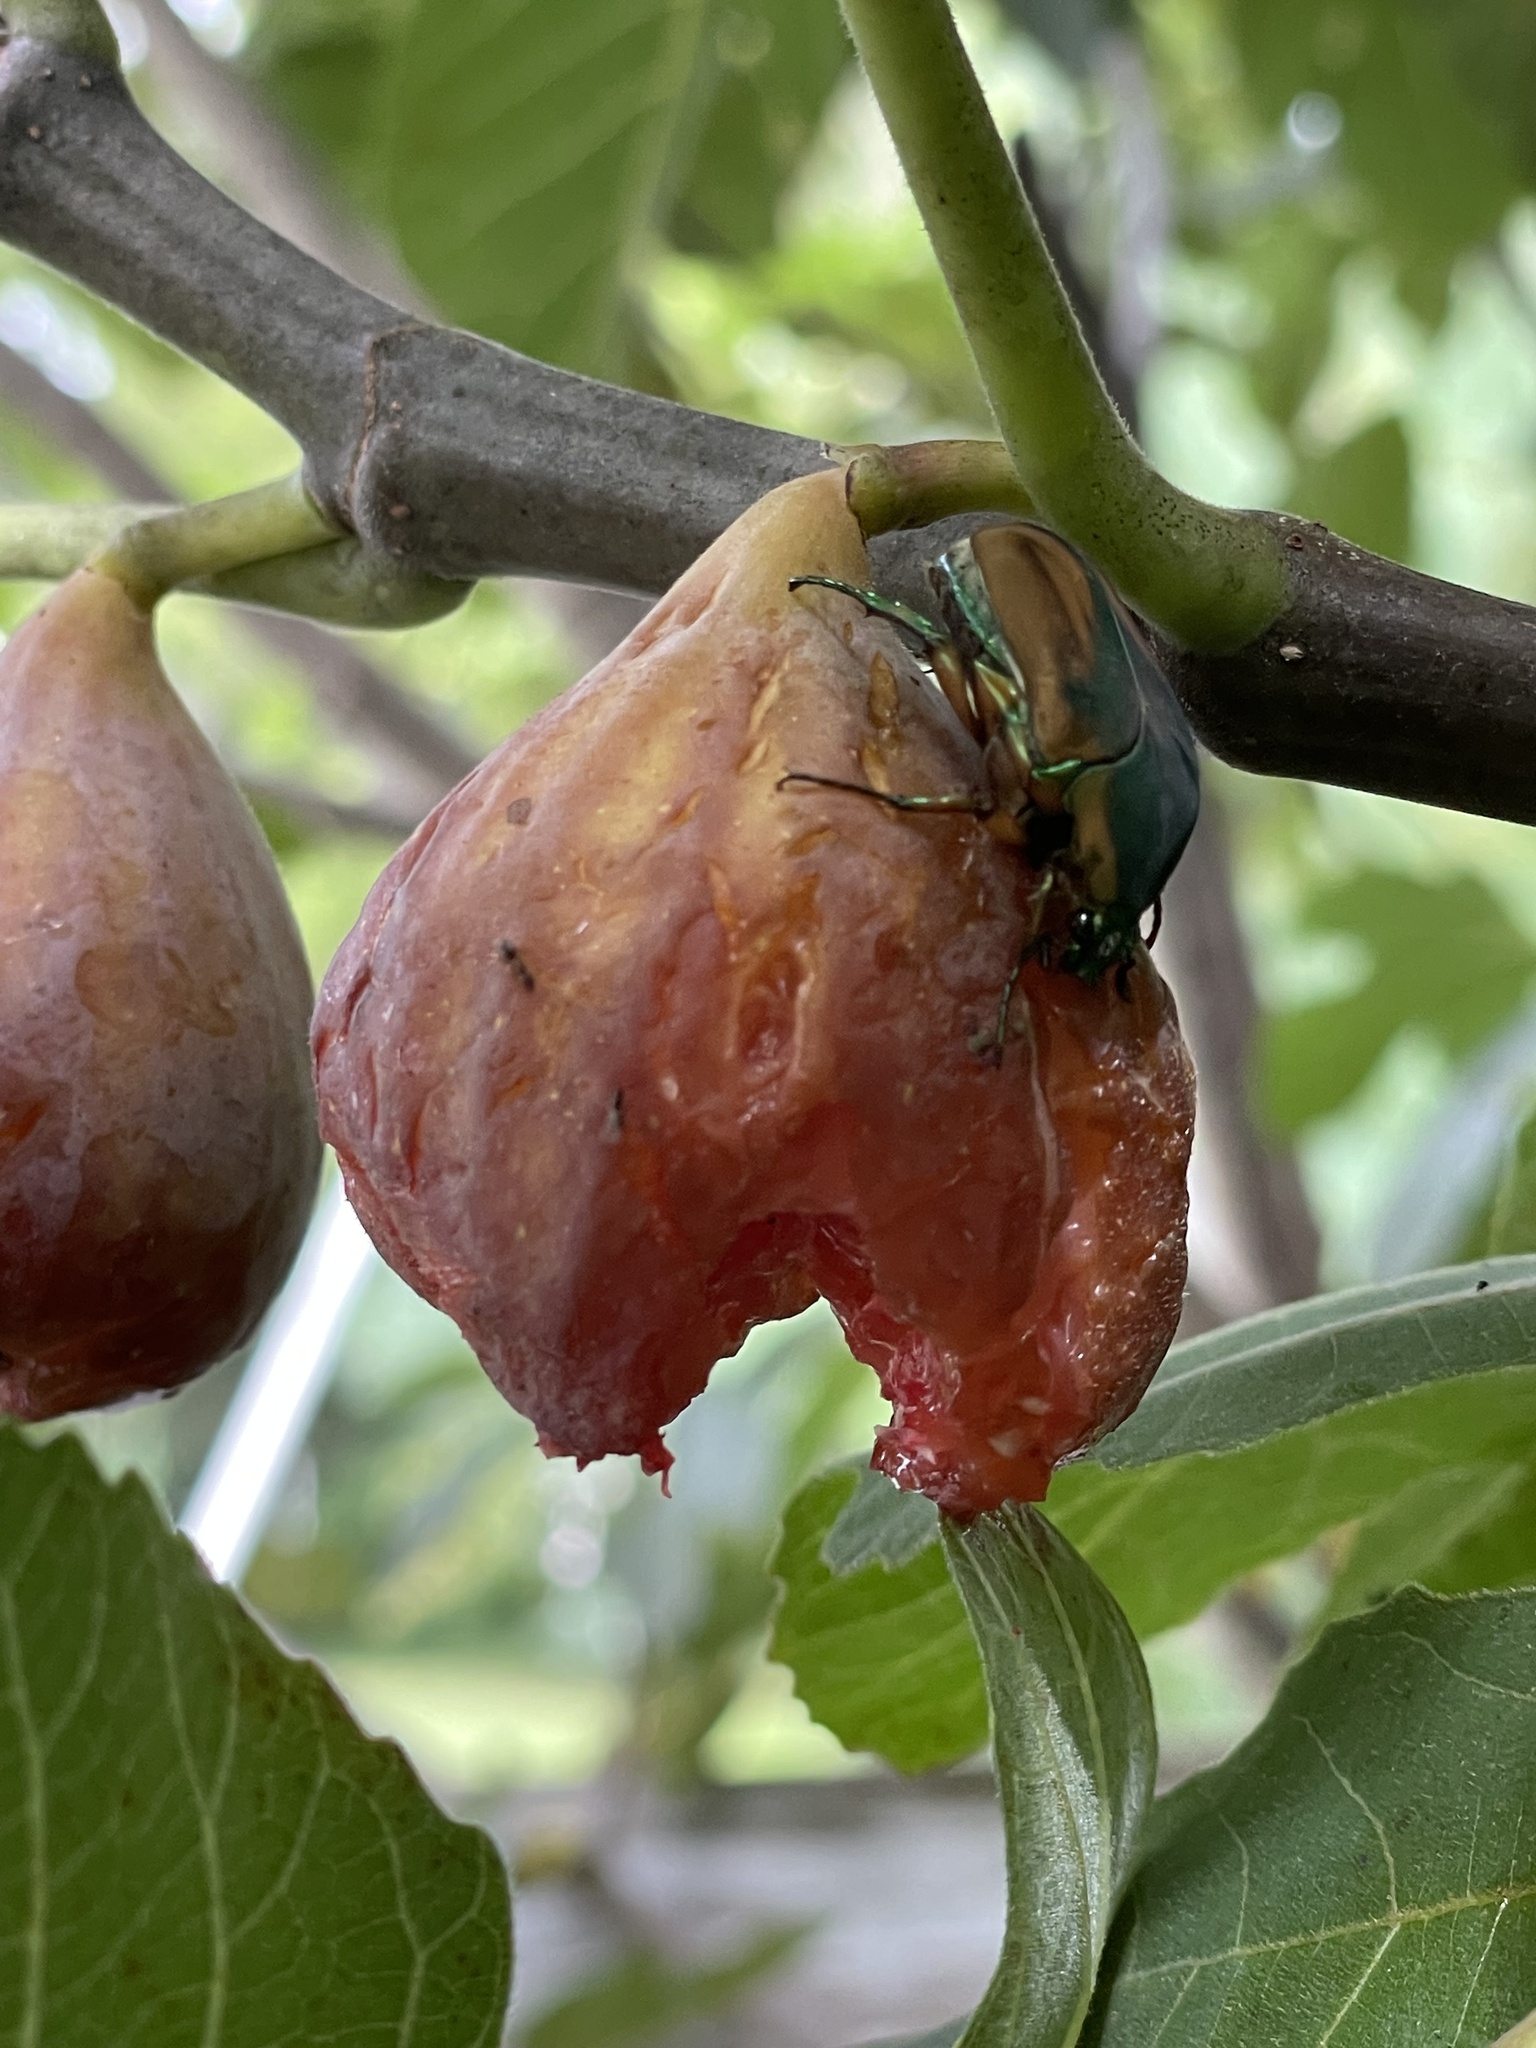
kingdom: Animalia
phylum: Arthropoda
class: Insecta
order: Coleoptera
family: Scarabaeidae
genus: Cotinis
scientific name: Cotinis nitida
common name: Common green june beetle
